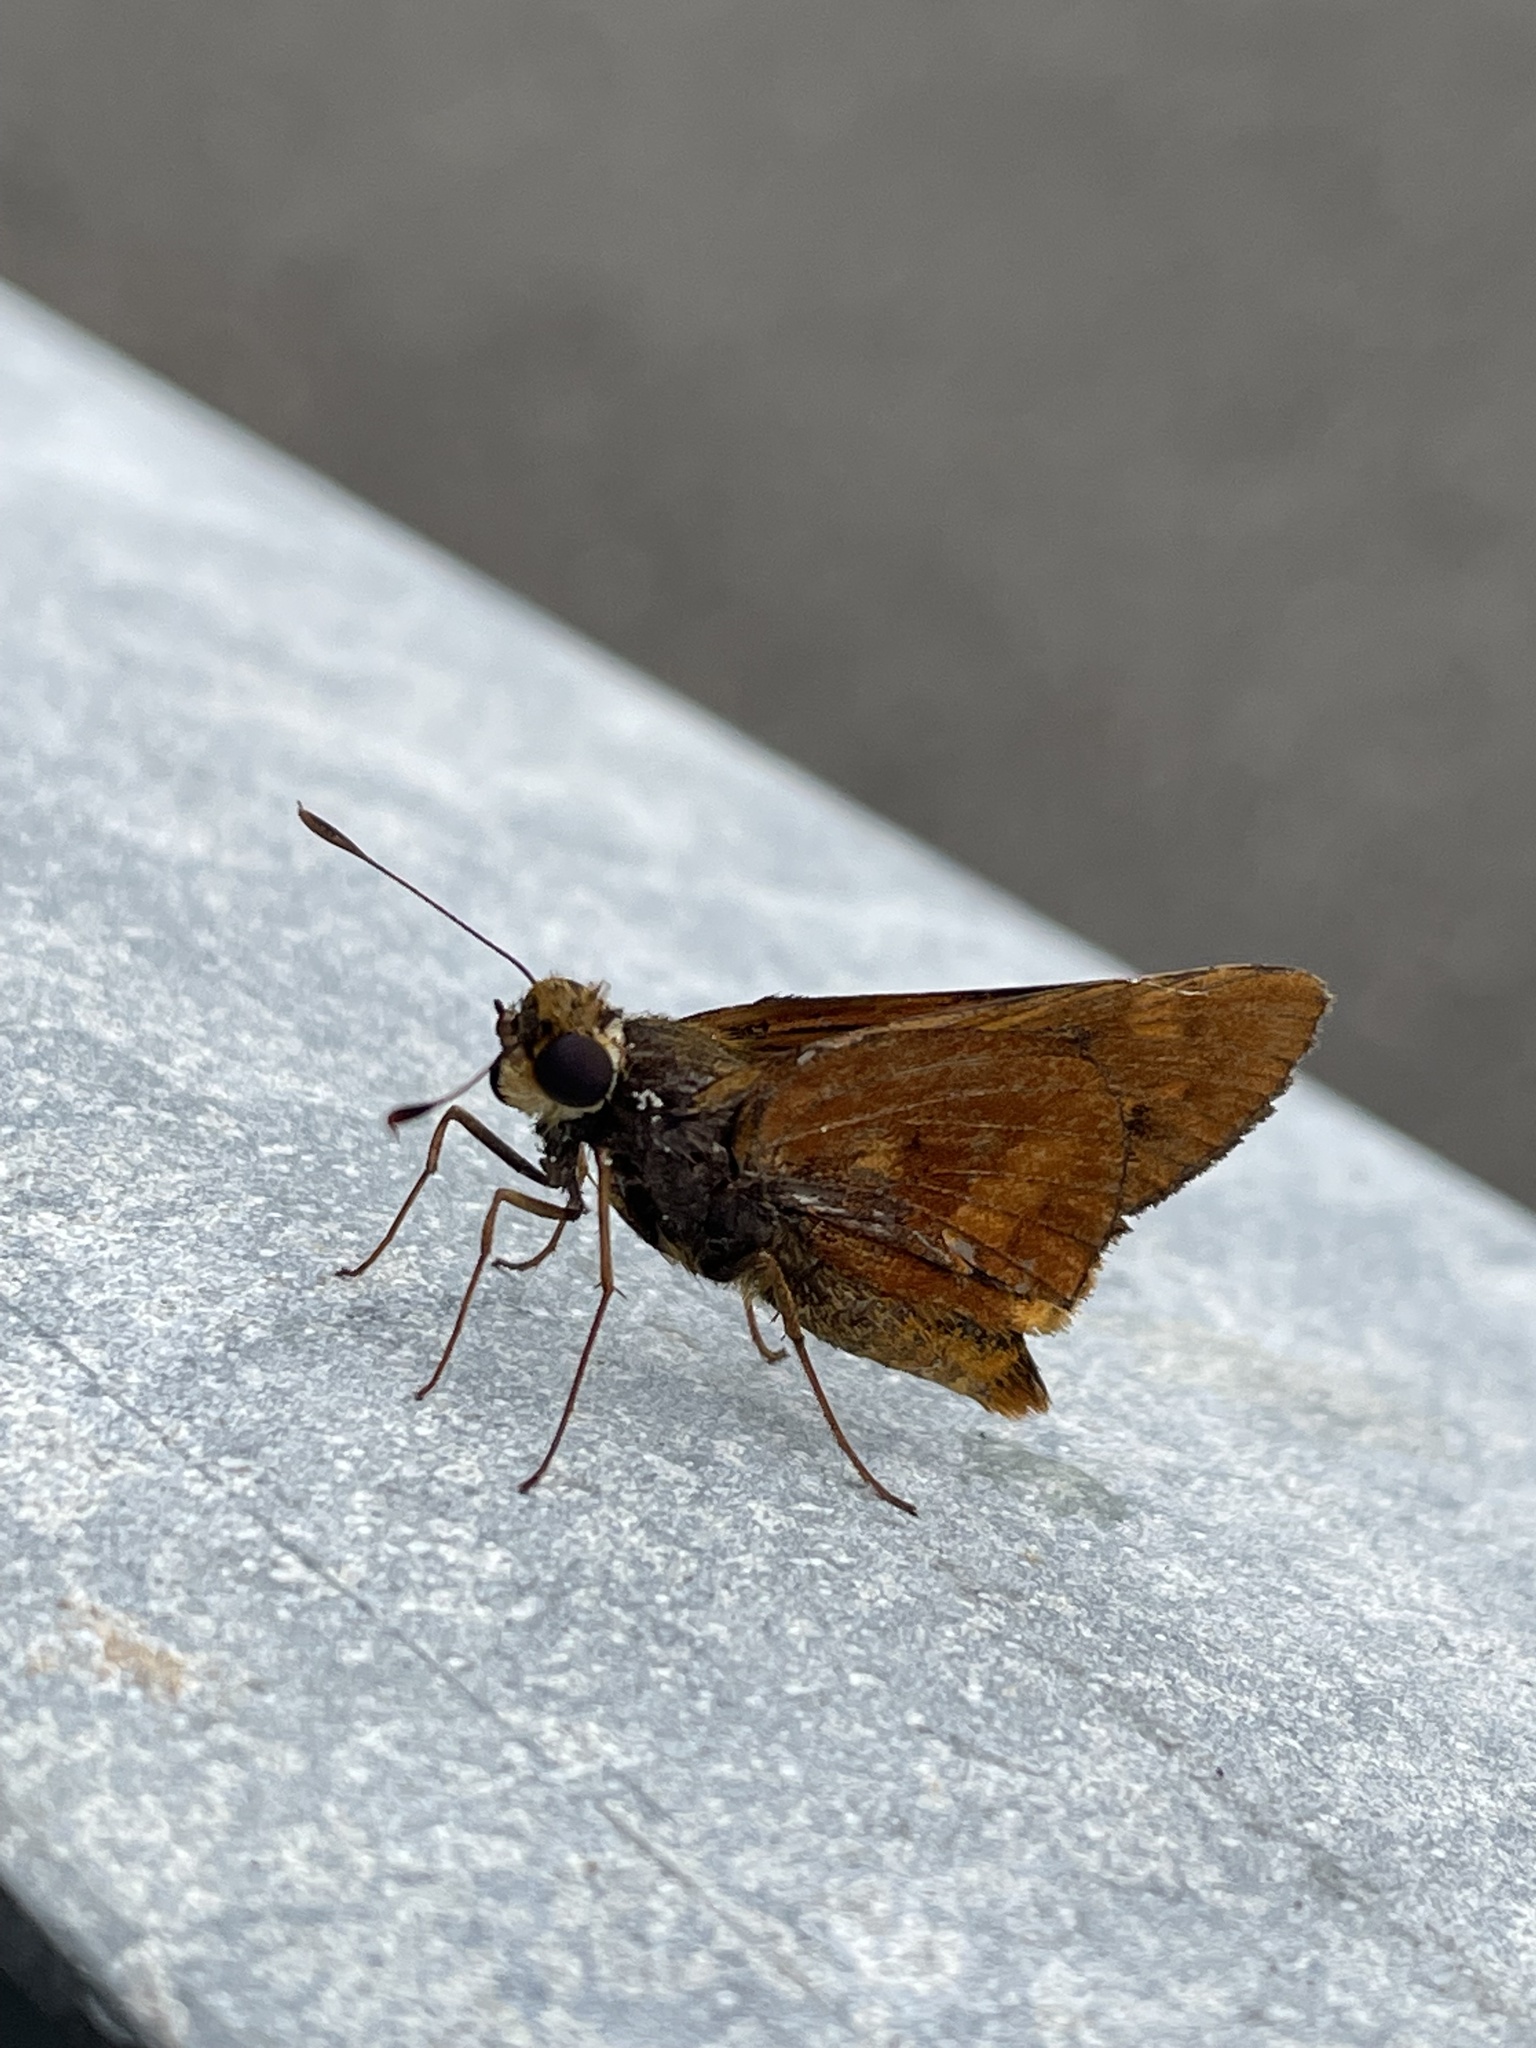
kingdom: Animalia
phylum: Arthropoda
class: Insecta
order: Lepidoptera
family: Hesperiidae
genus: Cephrenes
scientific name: Cephrenes augiades
